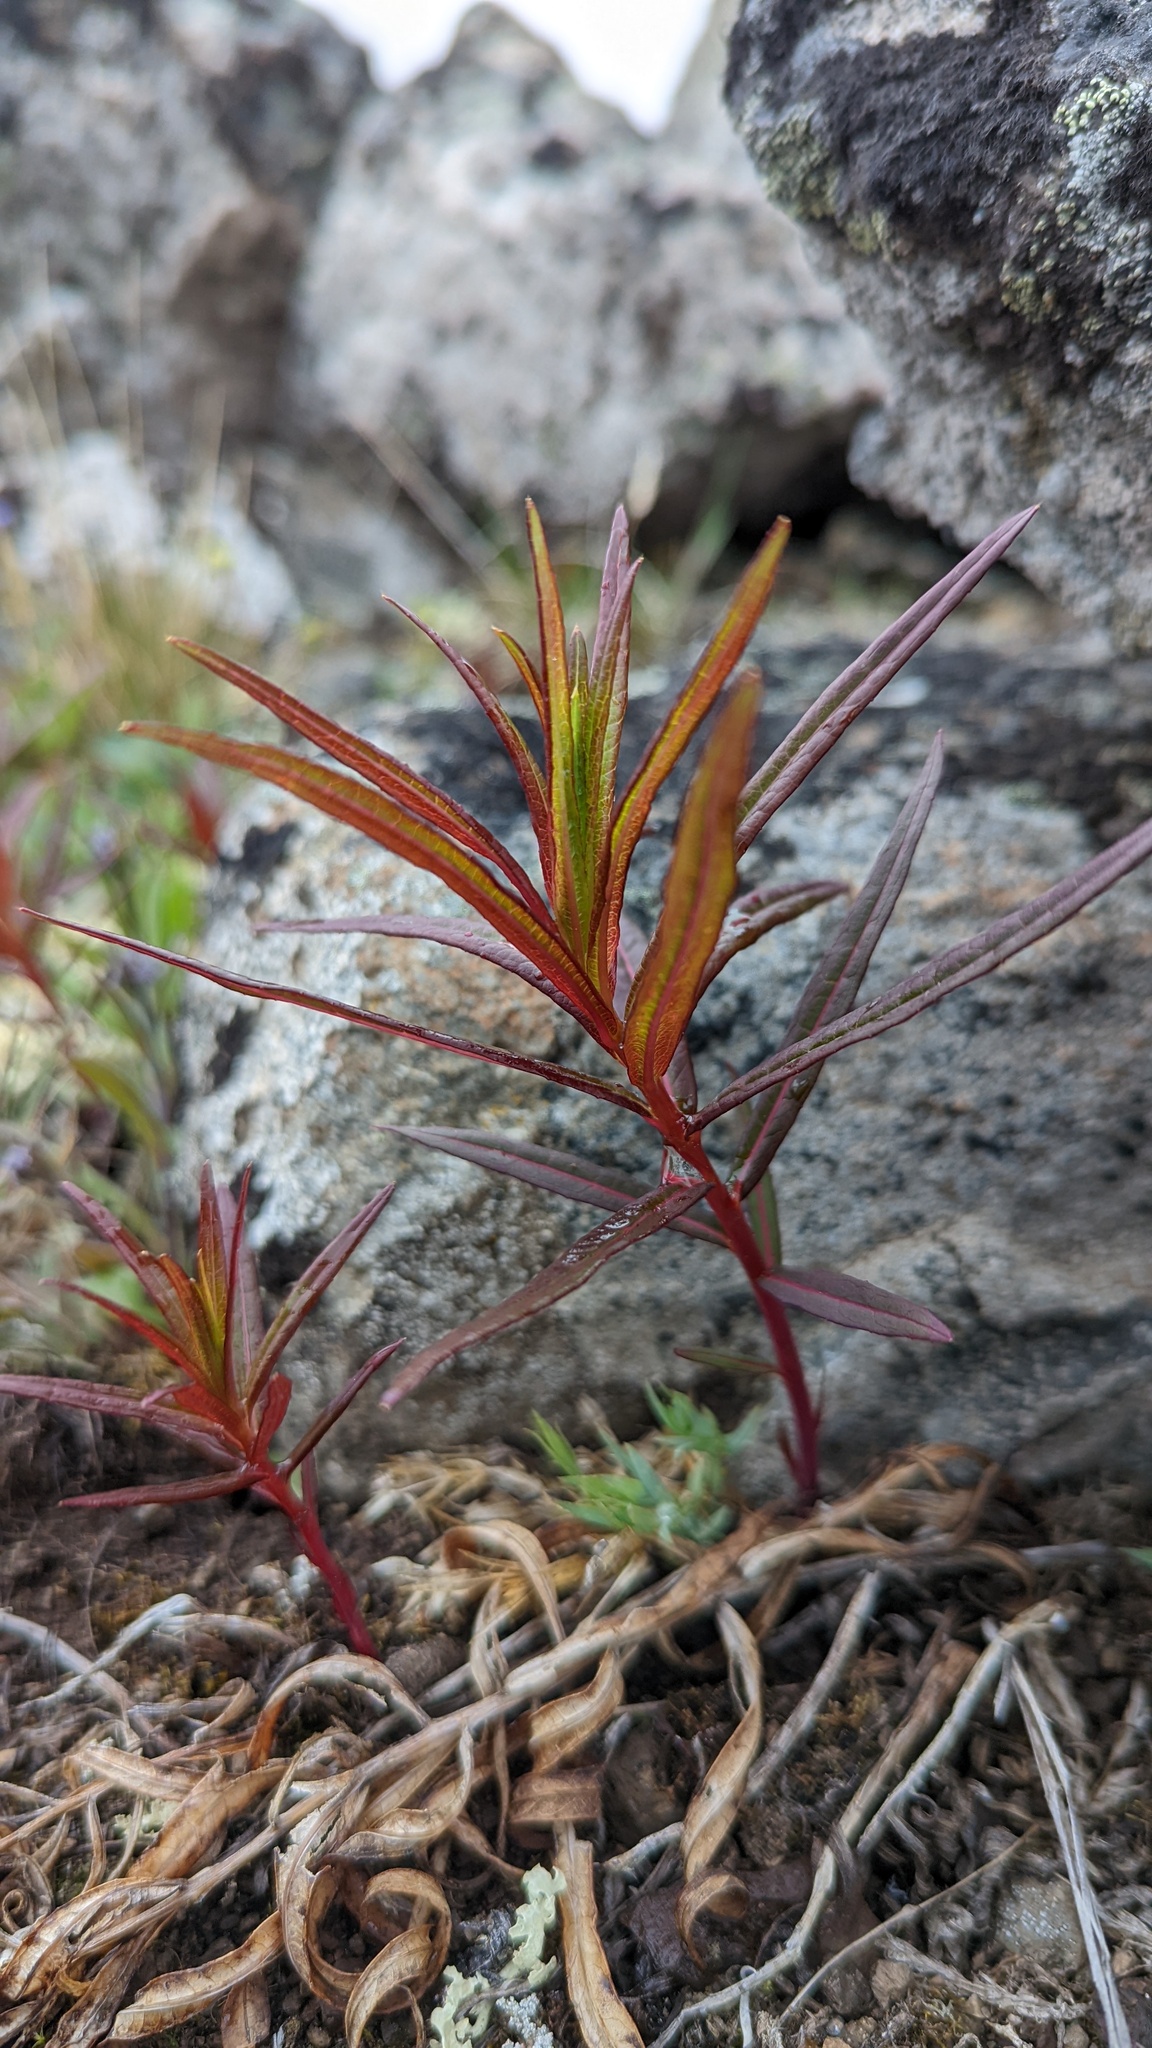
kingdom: Plantae
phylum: Tracheophyta
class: Magnoliopsida
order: Myrtales
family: Onagraceae
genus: Chamaenerion
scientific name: Chamaenerion angustifolium
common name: Fireweed
